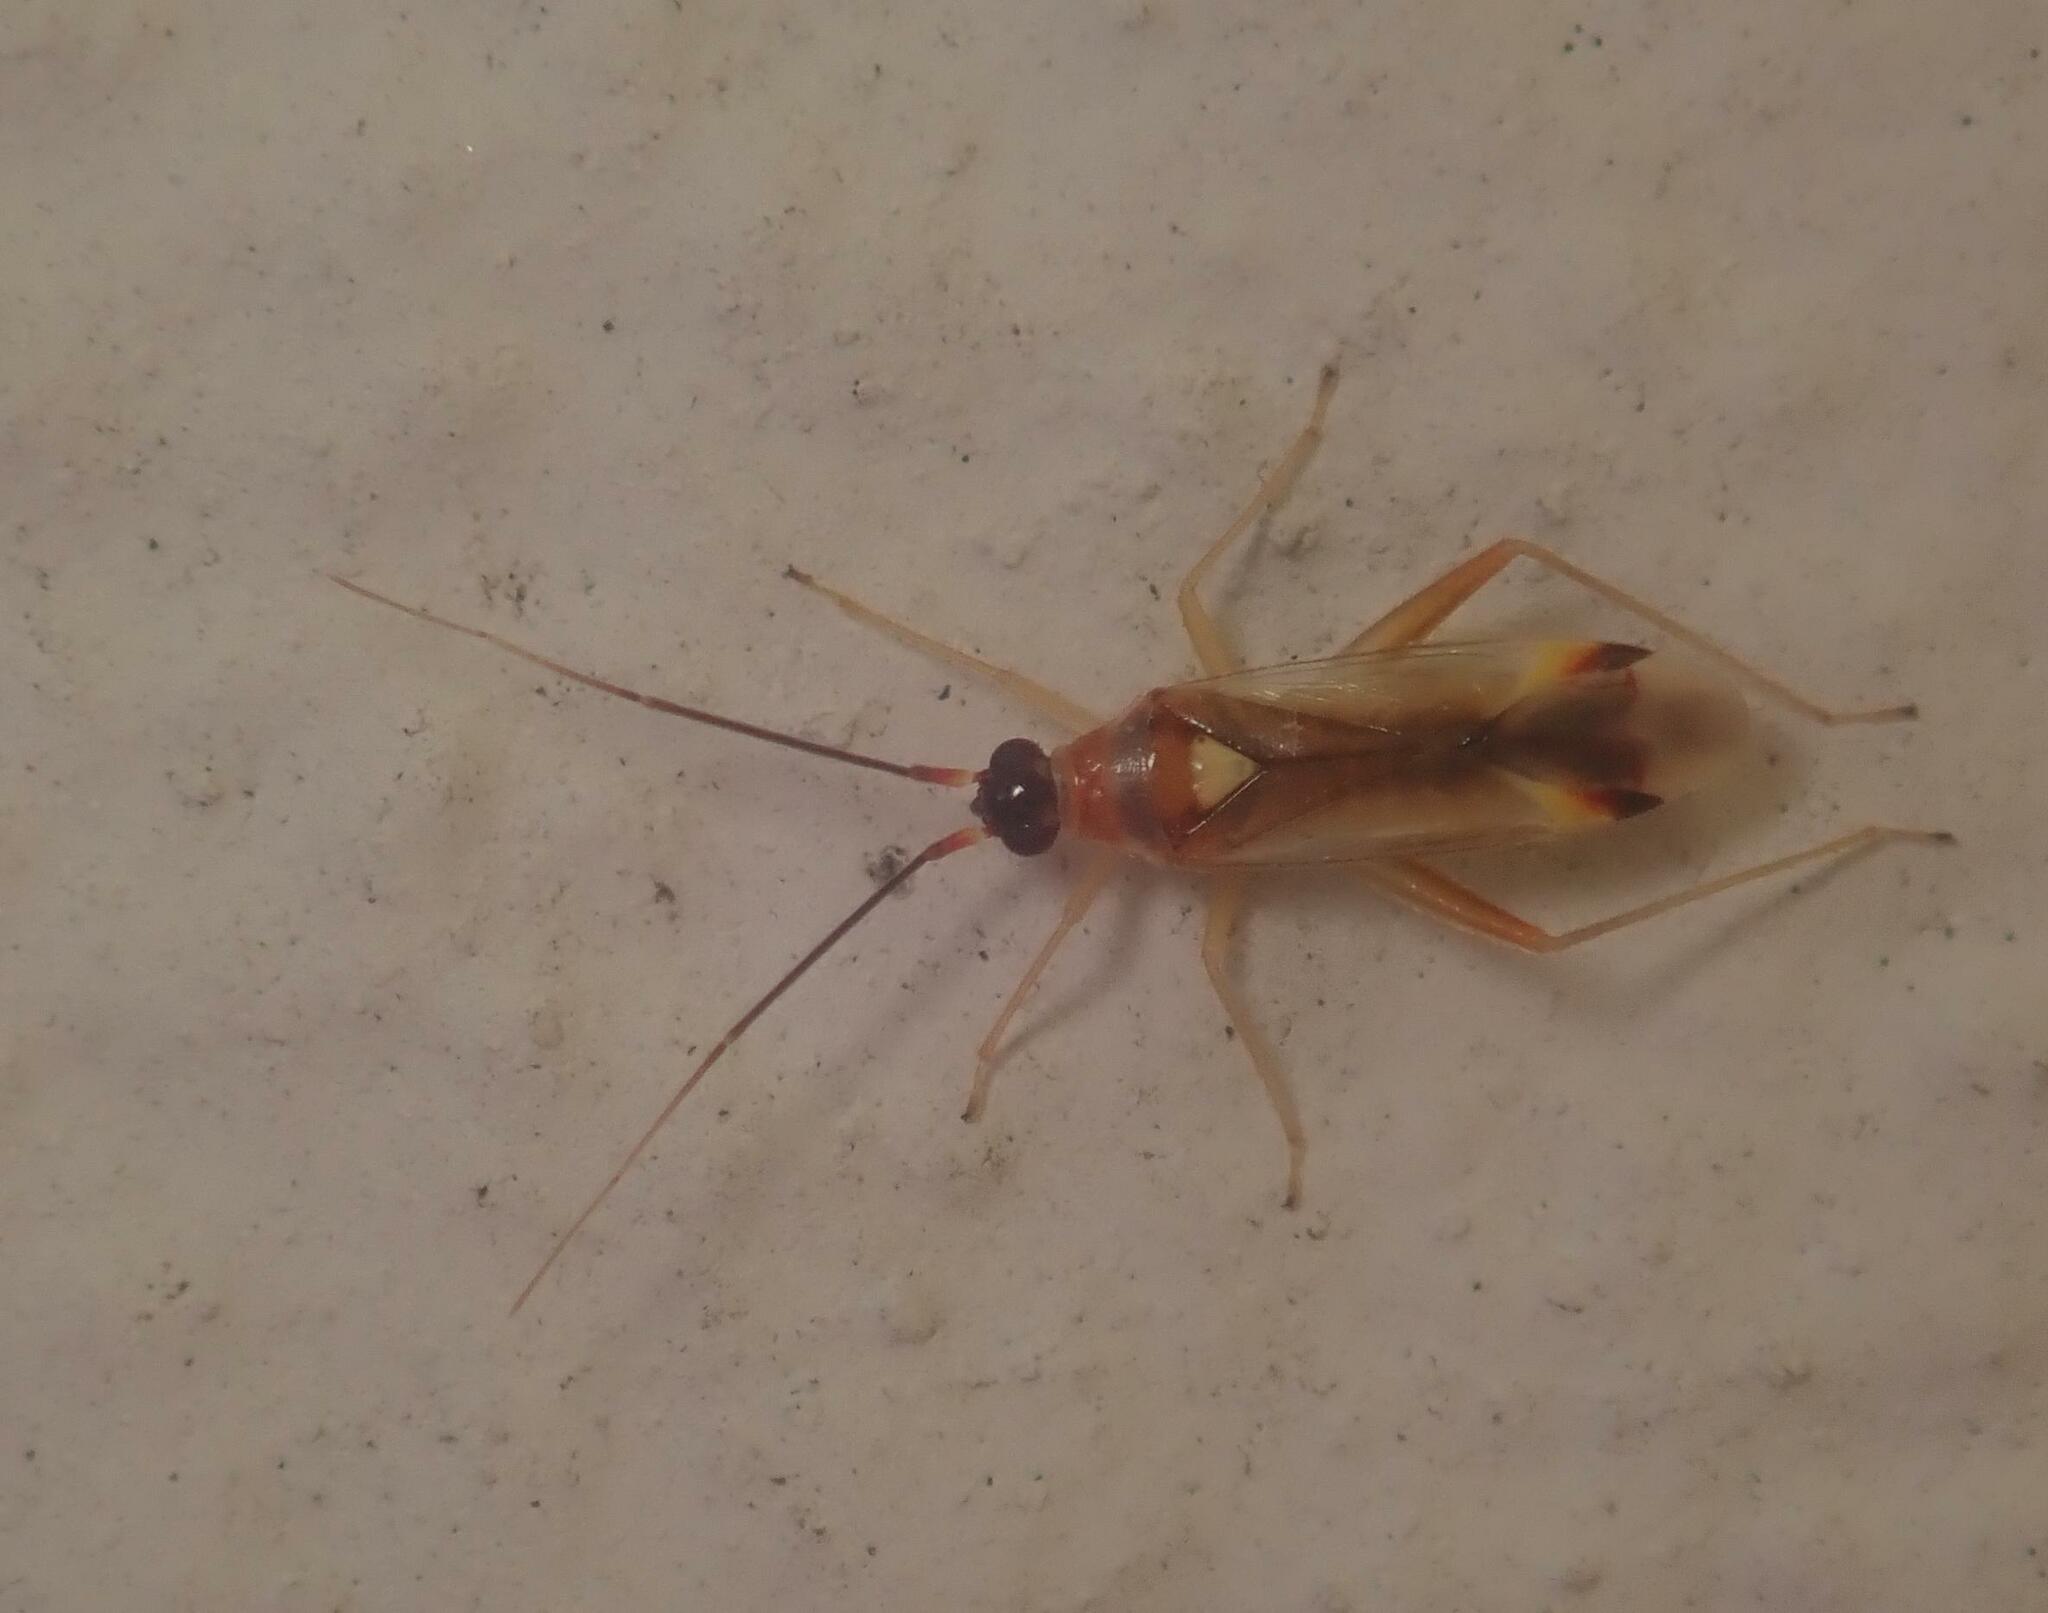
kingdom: Animalia
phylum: Arthropoda
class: Insecta
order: Hemiptera
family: Miridae
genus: Campyloneura
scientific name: Campyloneura virgula
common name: Predatory bug
